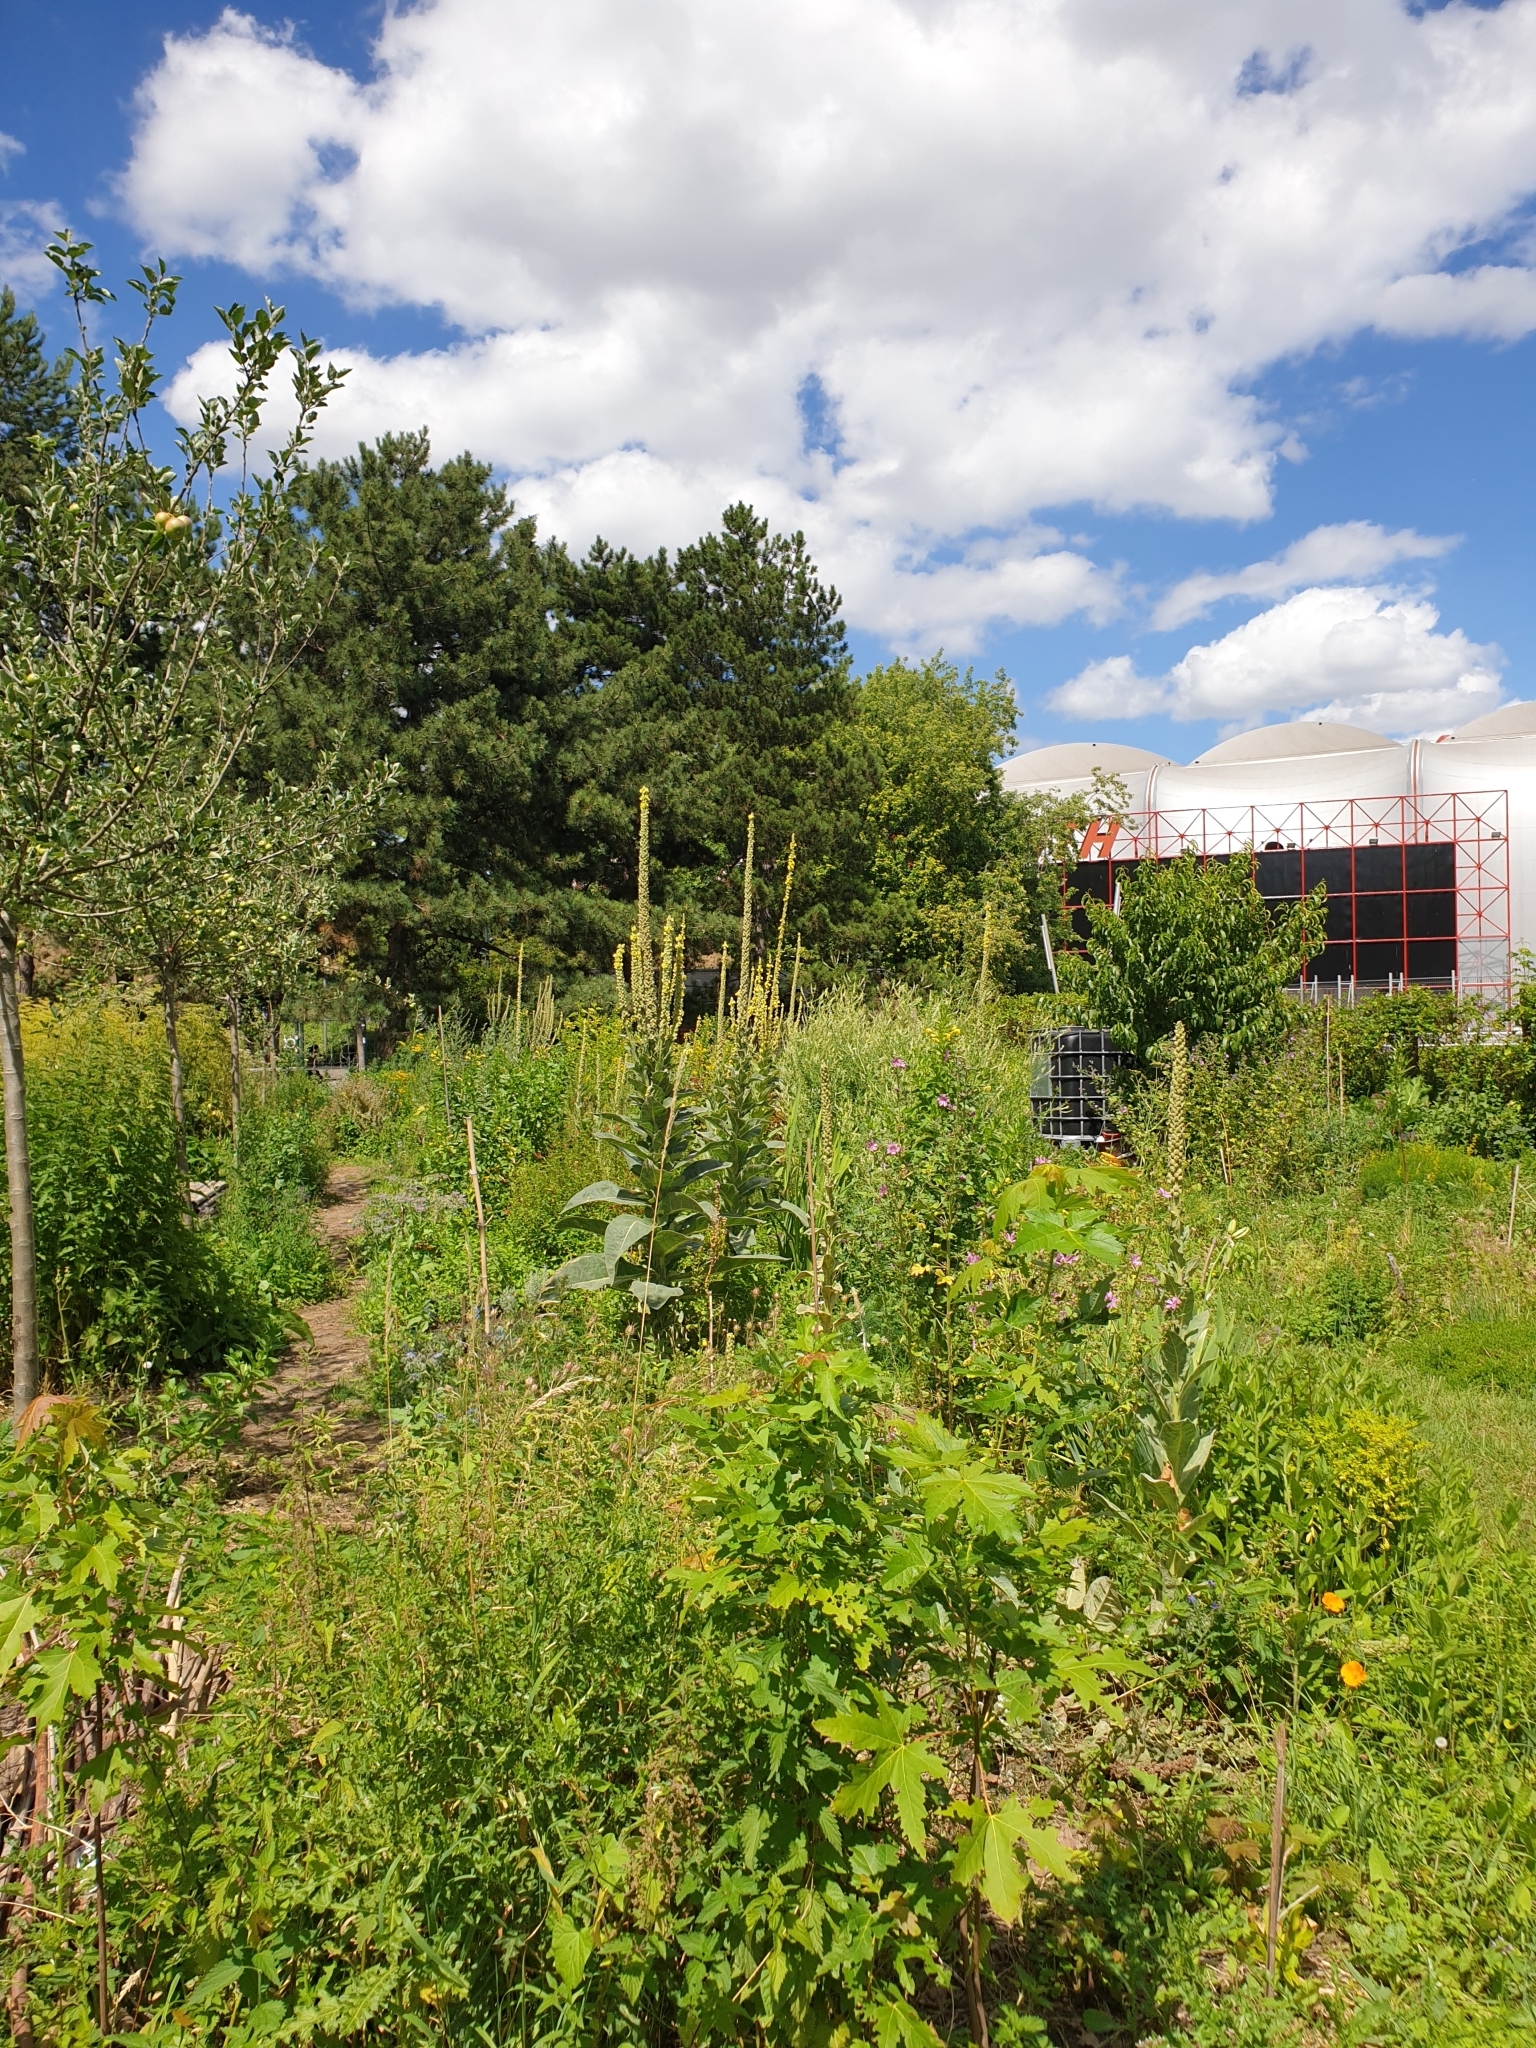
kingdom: Plantae
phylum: Tracheophyta
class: Magnoliopsida
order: Lamiales
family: Scrophulariaceae
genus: Verbascum
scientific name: Verbascum thapsus
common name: Common mullein
